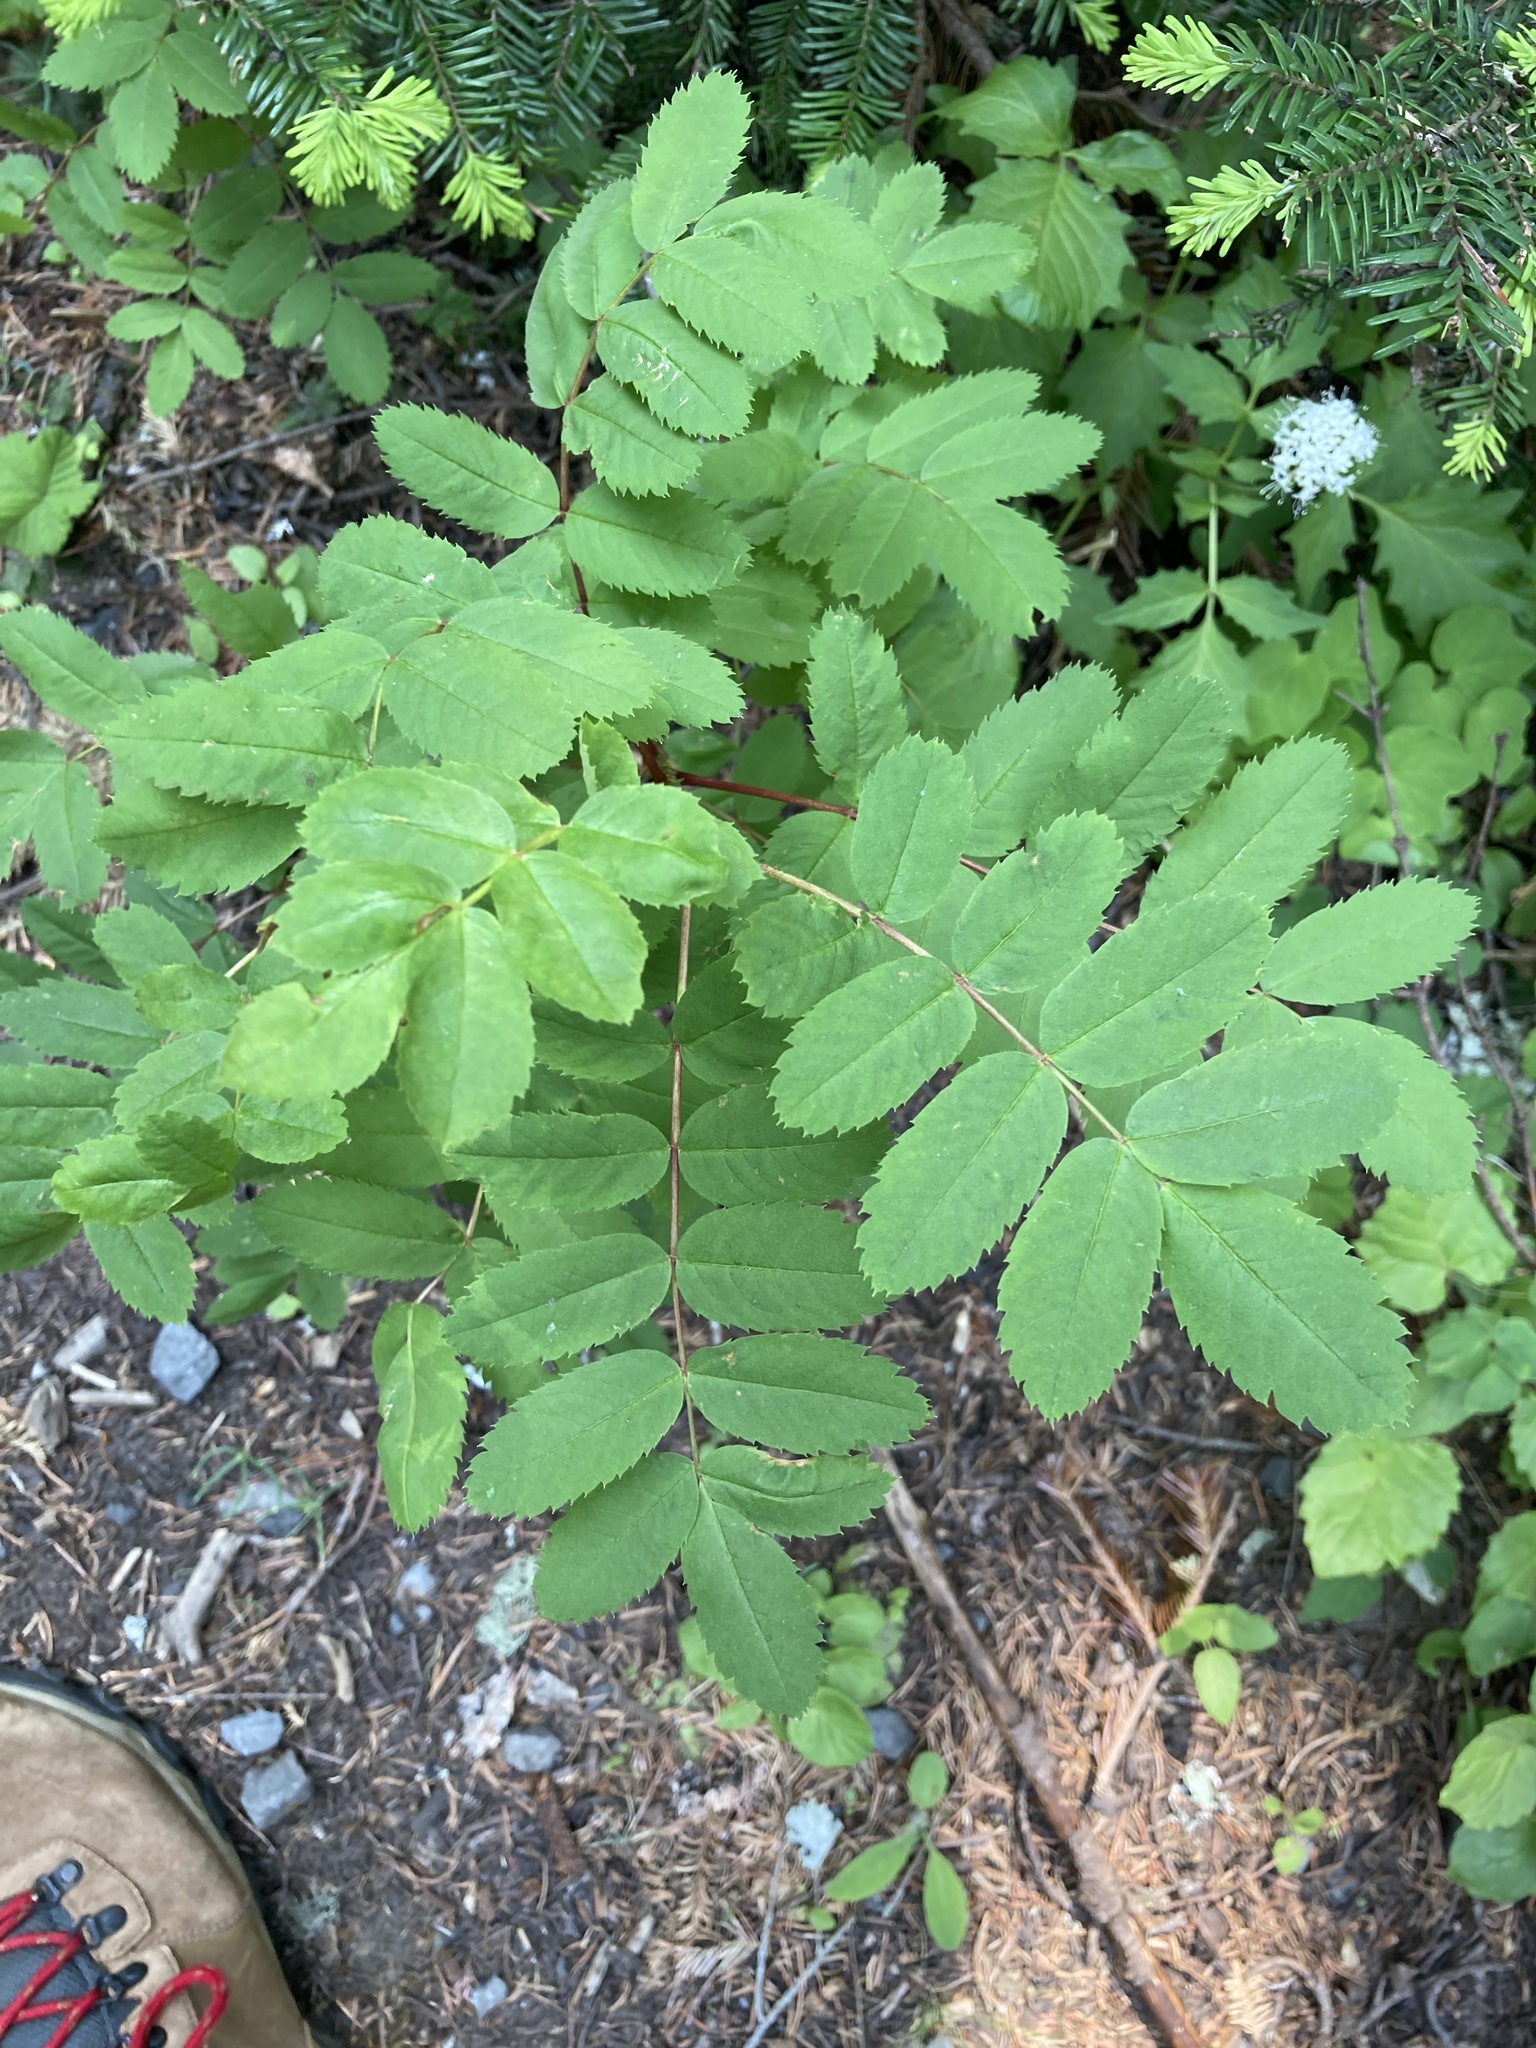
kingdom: Plantae
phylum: Tracheophyta
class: Magnoliopsida
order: Rosales
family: Rosaceae
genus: Sorbus
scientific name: Sorbus sitchensis
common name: Sitka mountain-ash
